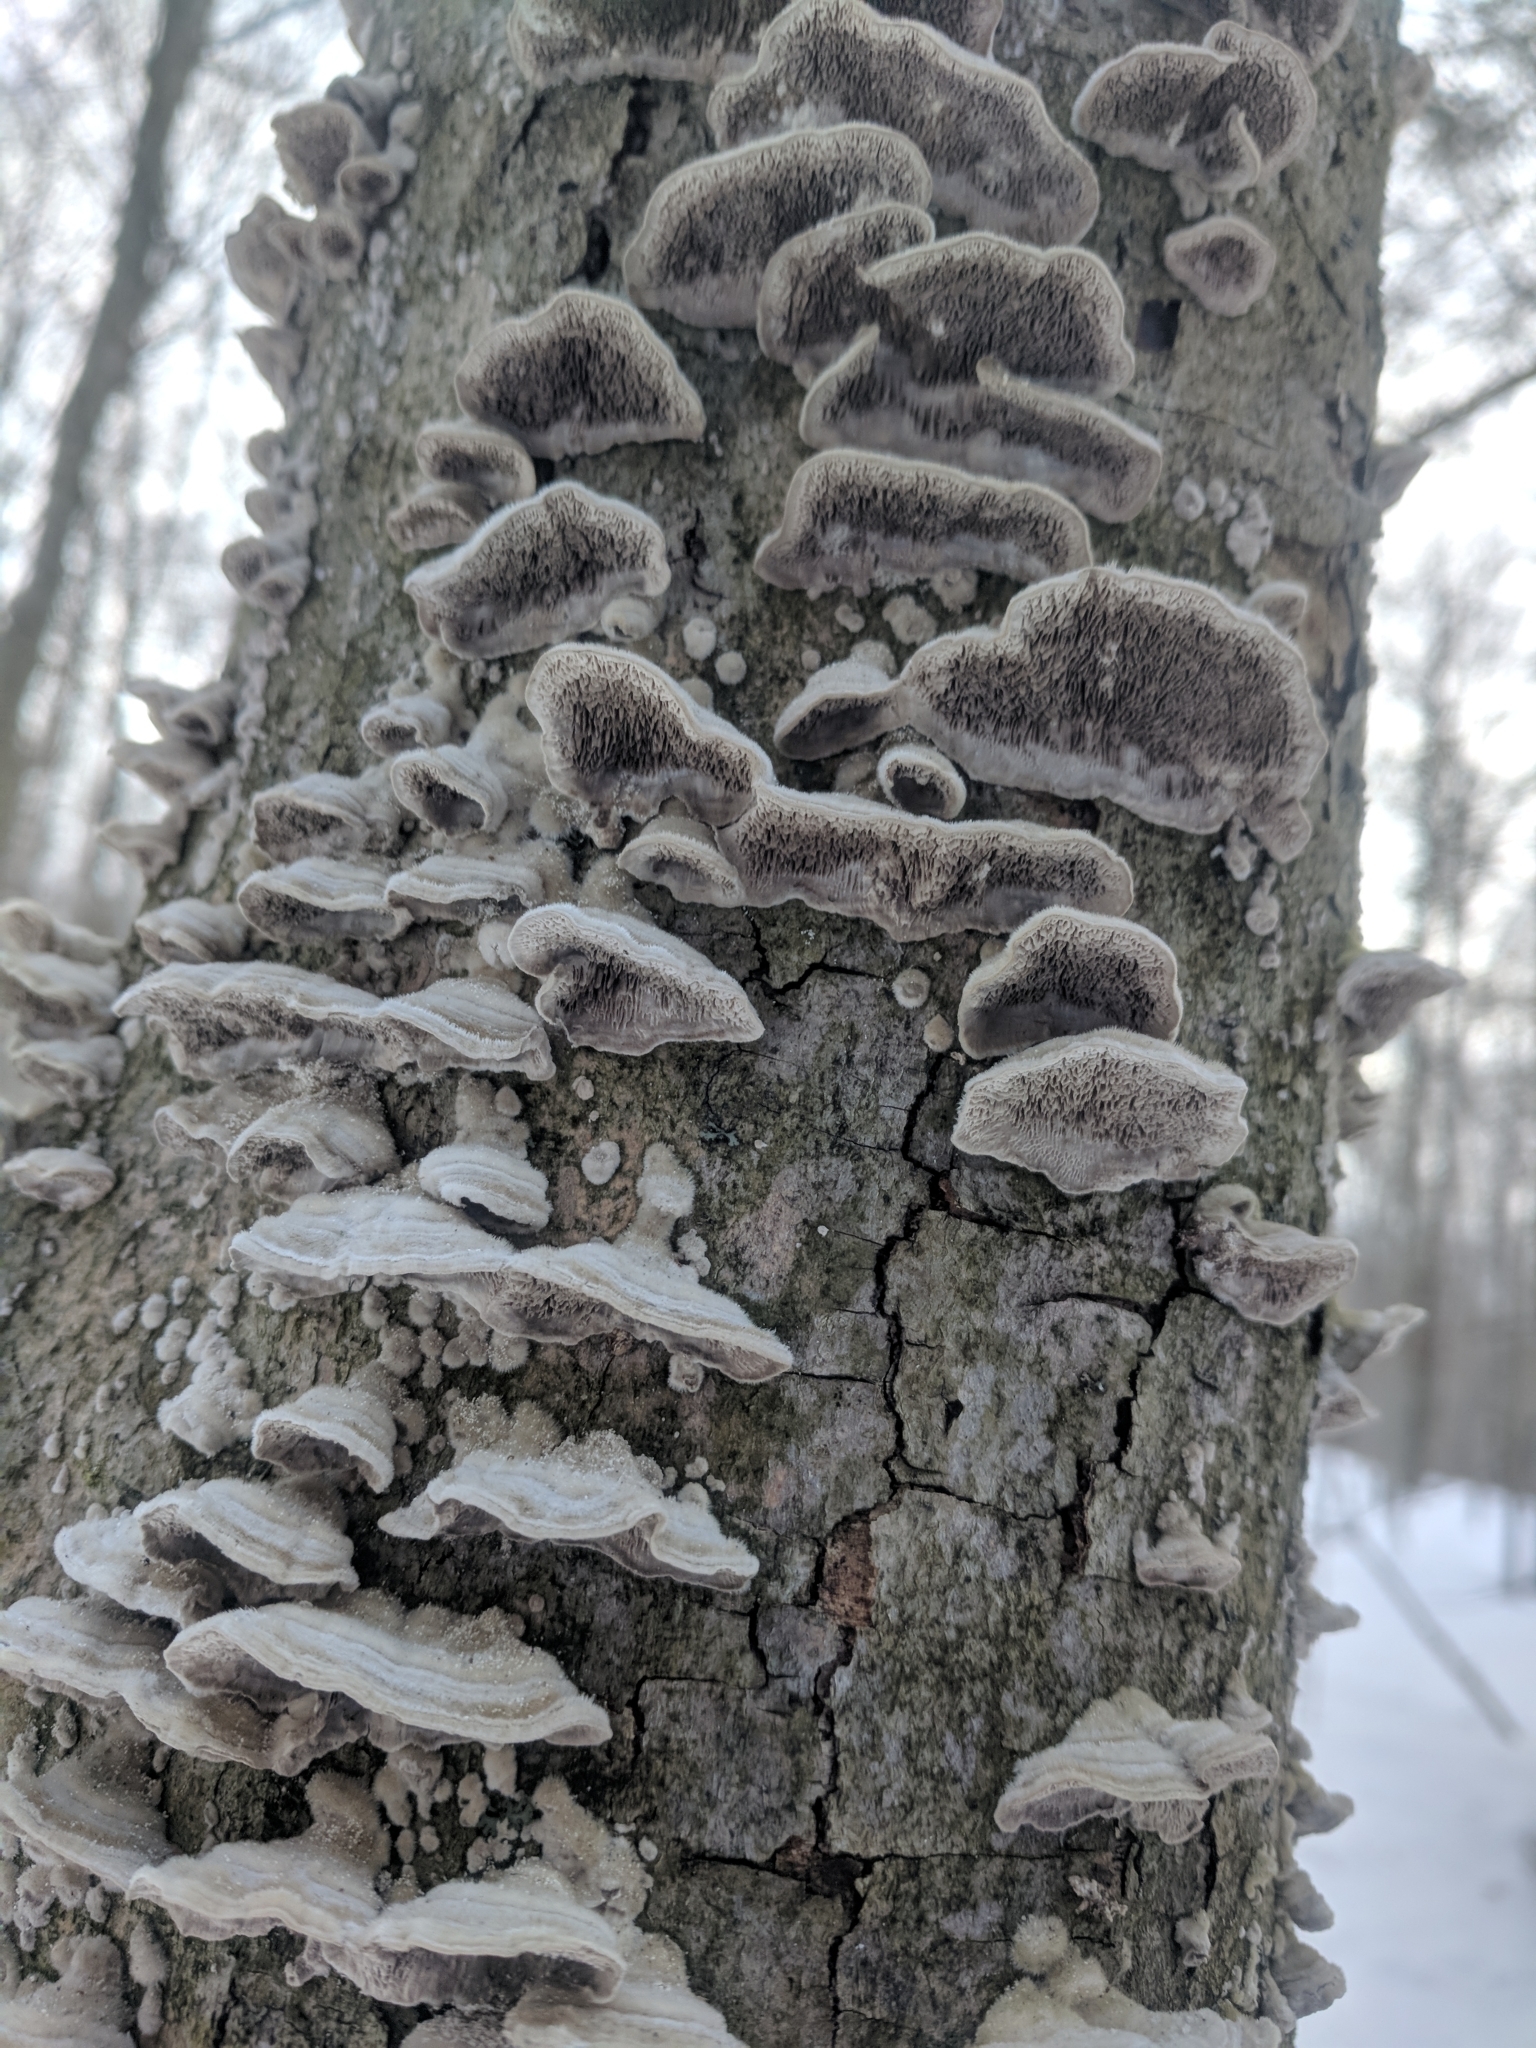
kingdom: Fungi
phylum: Basidiomycota
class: Agaricomycetes
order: Hymenochaetales
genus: Trichaptum
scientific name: Trichaptum abietinum
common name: Purplepore bracket
